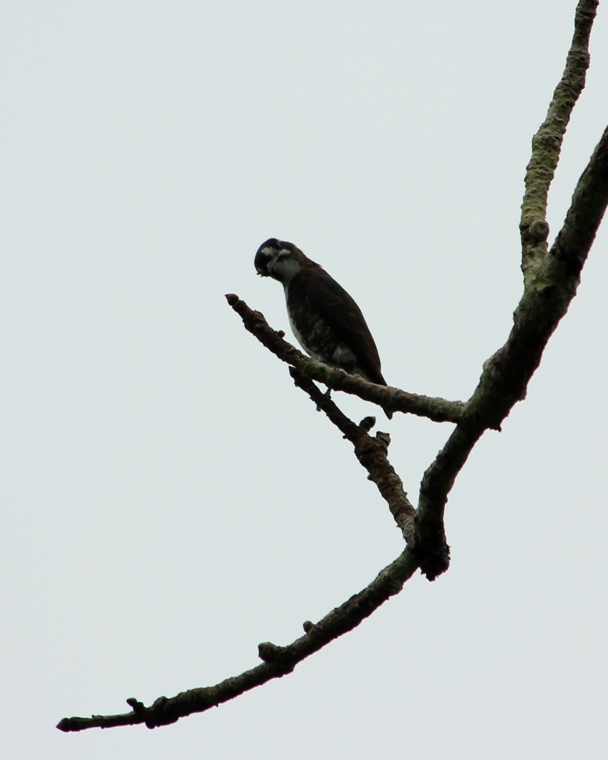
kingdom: Animalia
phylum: Chordata
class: Aves
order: Passeriformes
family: Cotingidae
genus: Iodopleura
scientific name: Iodopleura isabellae
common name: White-browed purpletuft
